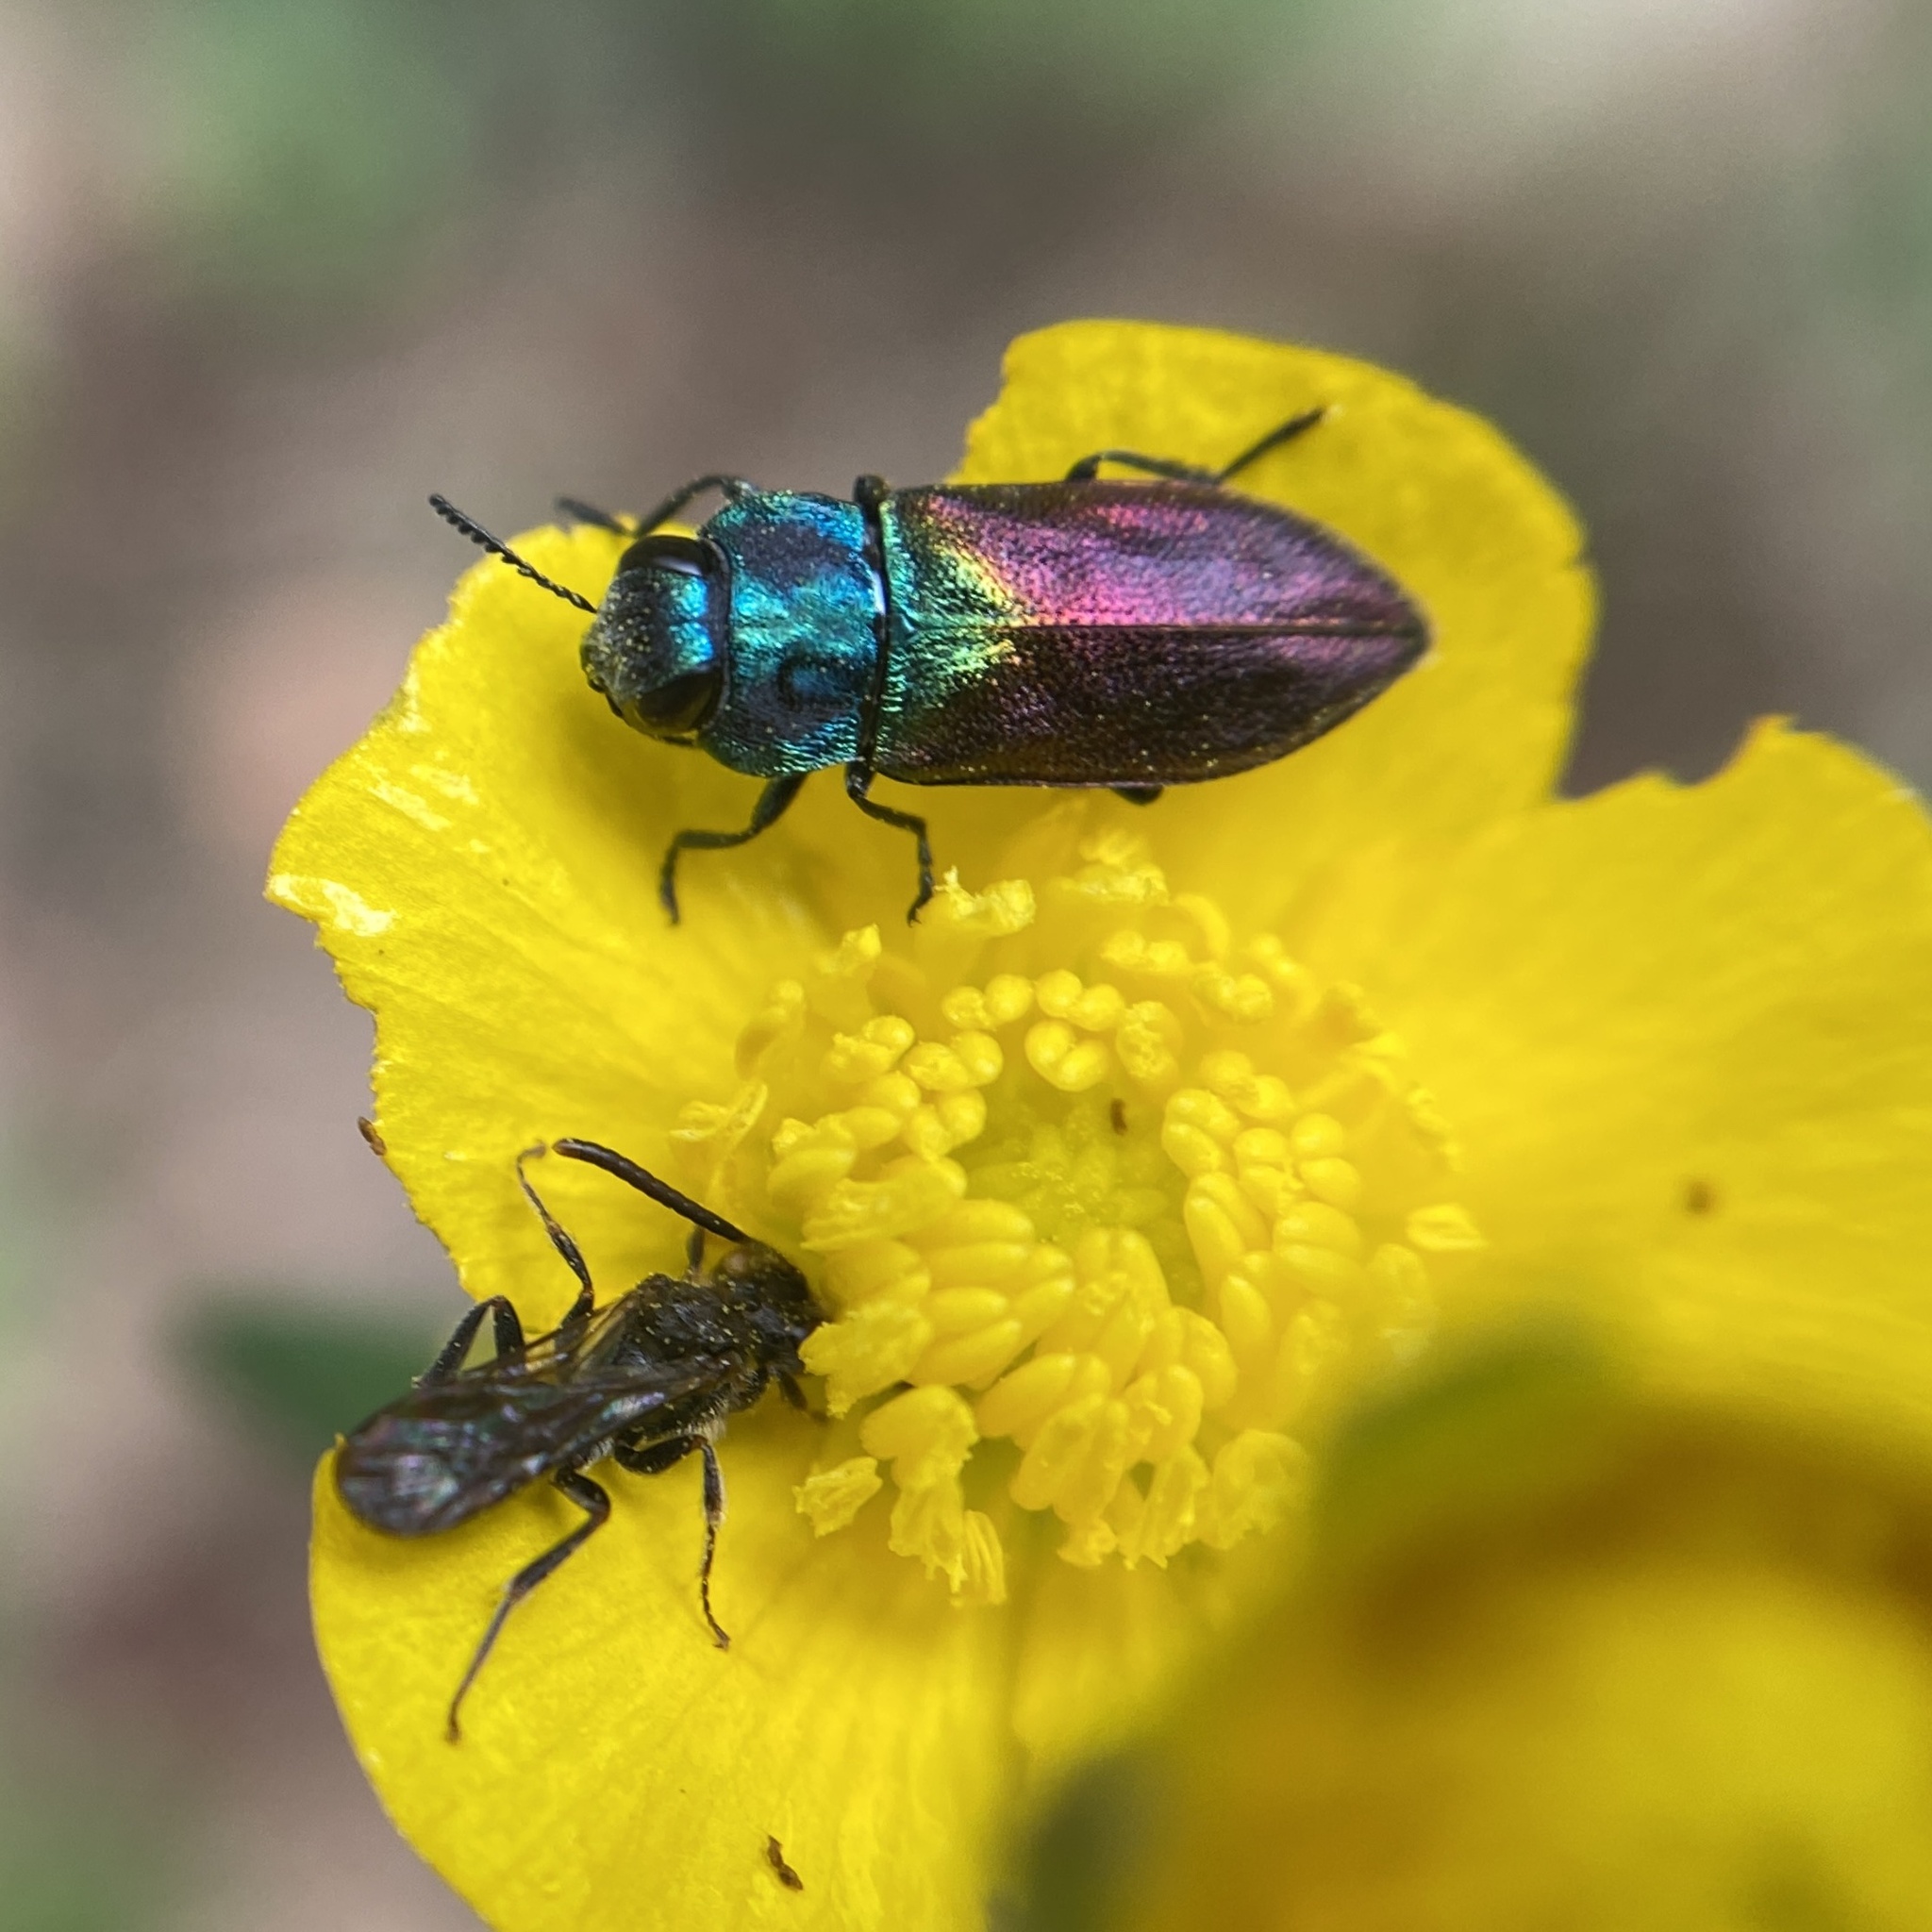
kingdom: Animalia
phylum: Arthropoda
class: Insecta
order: Coleoptera
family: Buprestidae
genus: Anthaxia
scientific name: Anthaxia salicis
